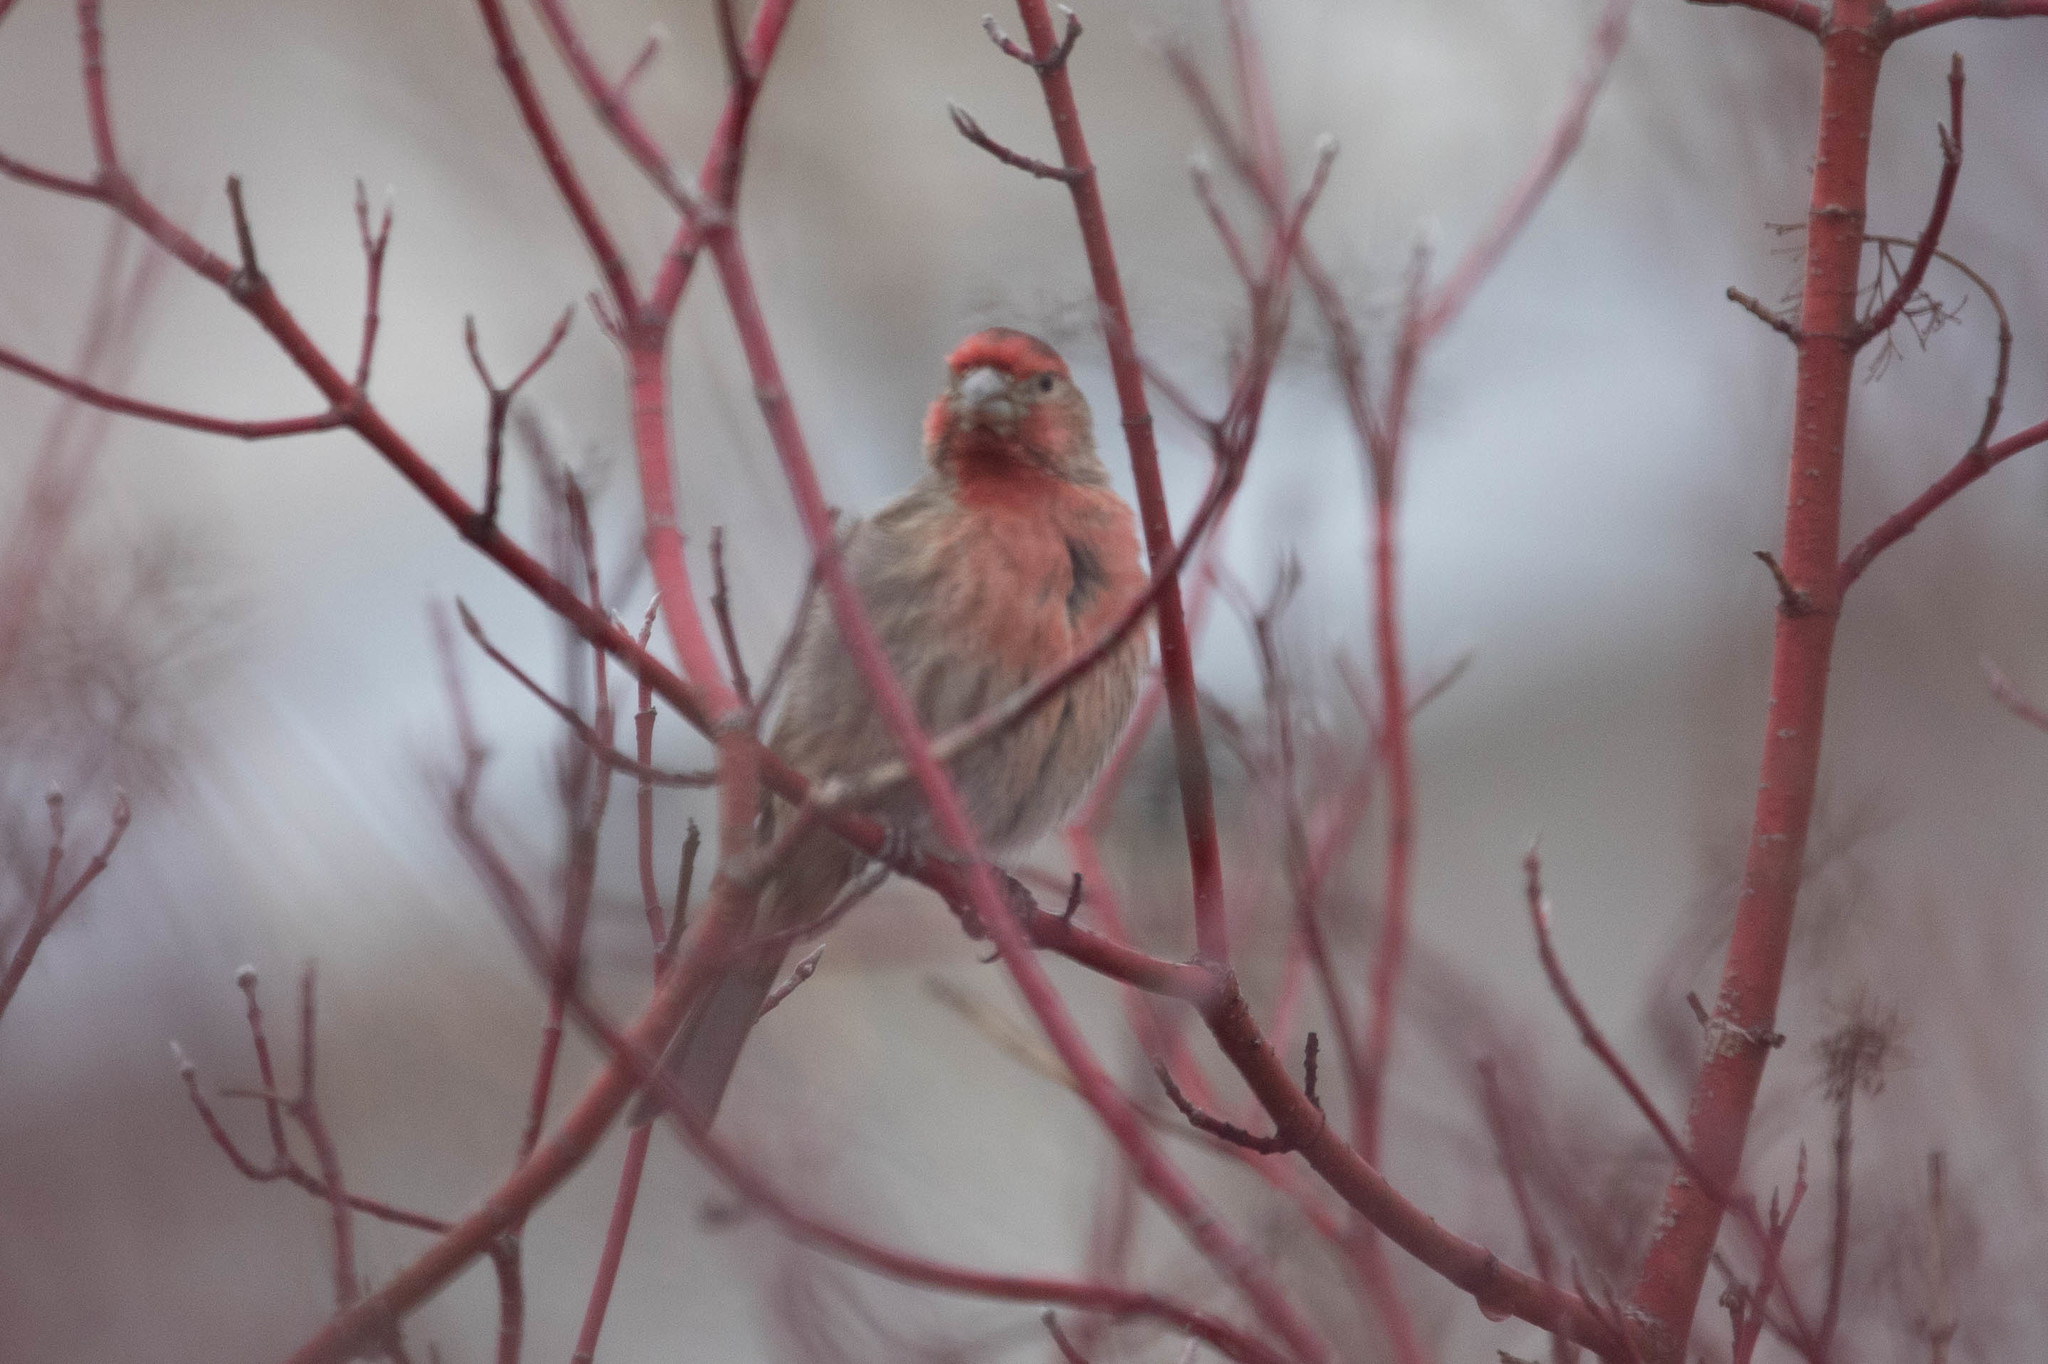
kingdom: Animalia
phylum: Chordata
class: Aves
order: Passeriformes
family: Fringillidae
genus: Haemorhous
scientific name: Haemorhous mexicanus
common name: House finch
